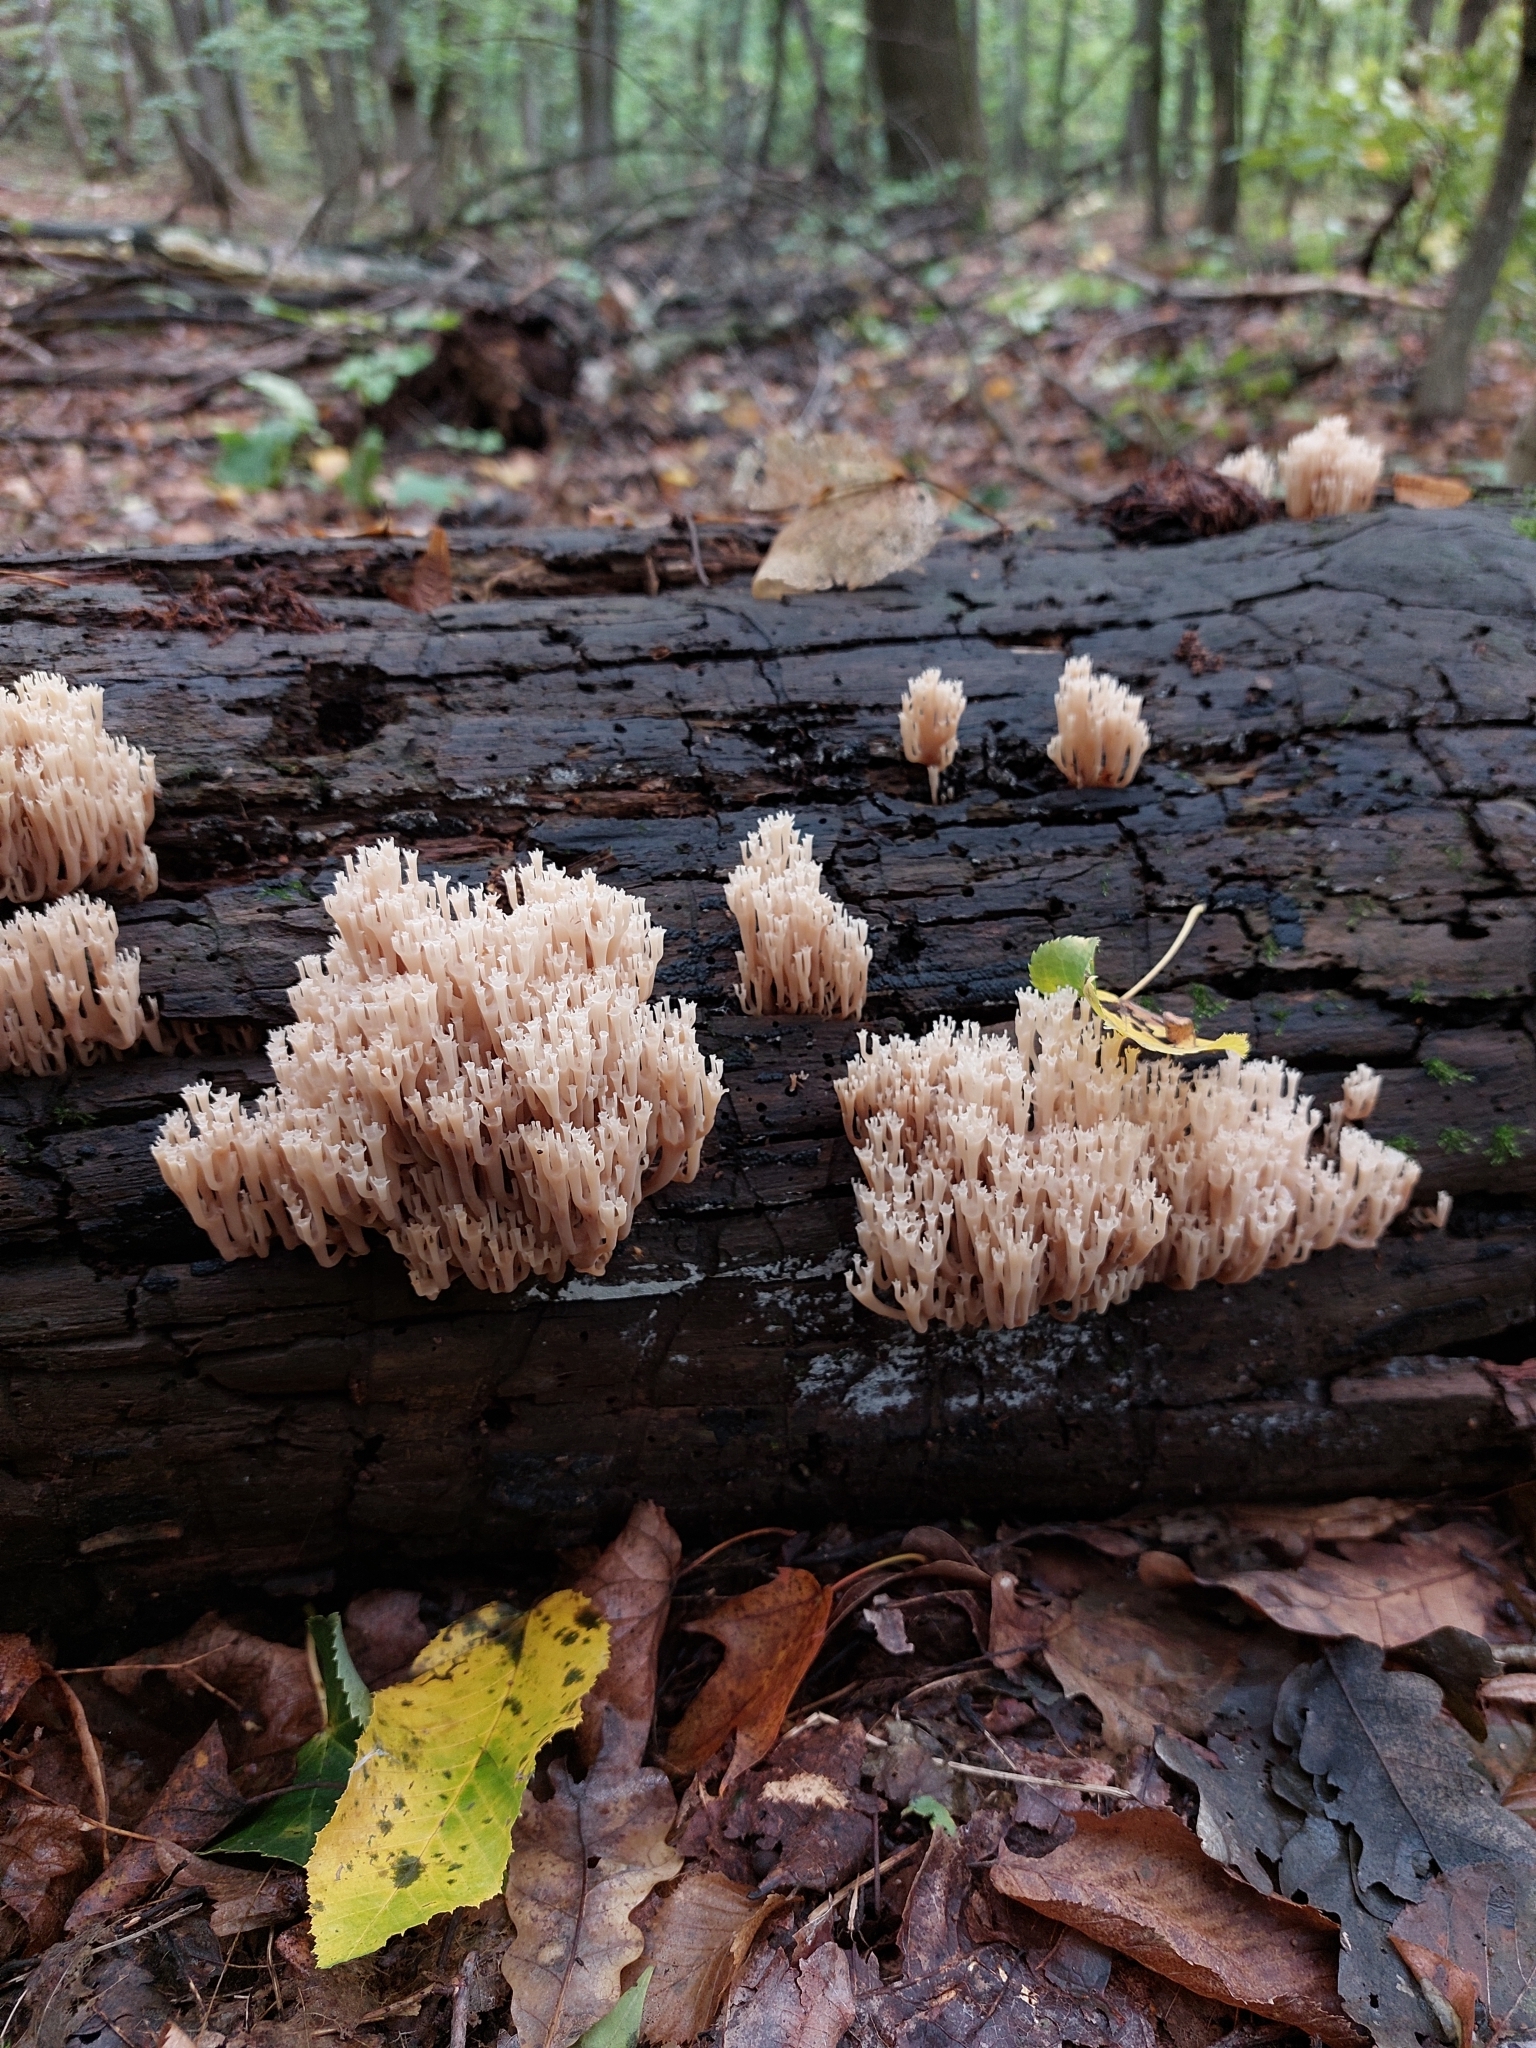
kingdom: Fungi
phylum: Basidiomycota
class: Agaricomycetes
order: Russulales
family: Auriscalpiaceae
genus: Artomyces
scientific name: Artomyces pyxidatus
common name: Crown-tipped coral fungus
